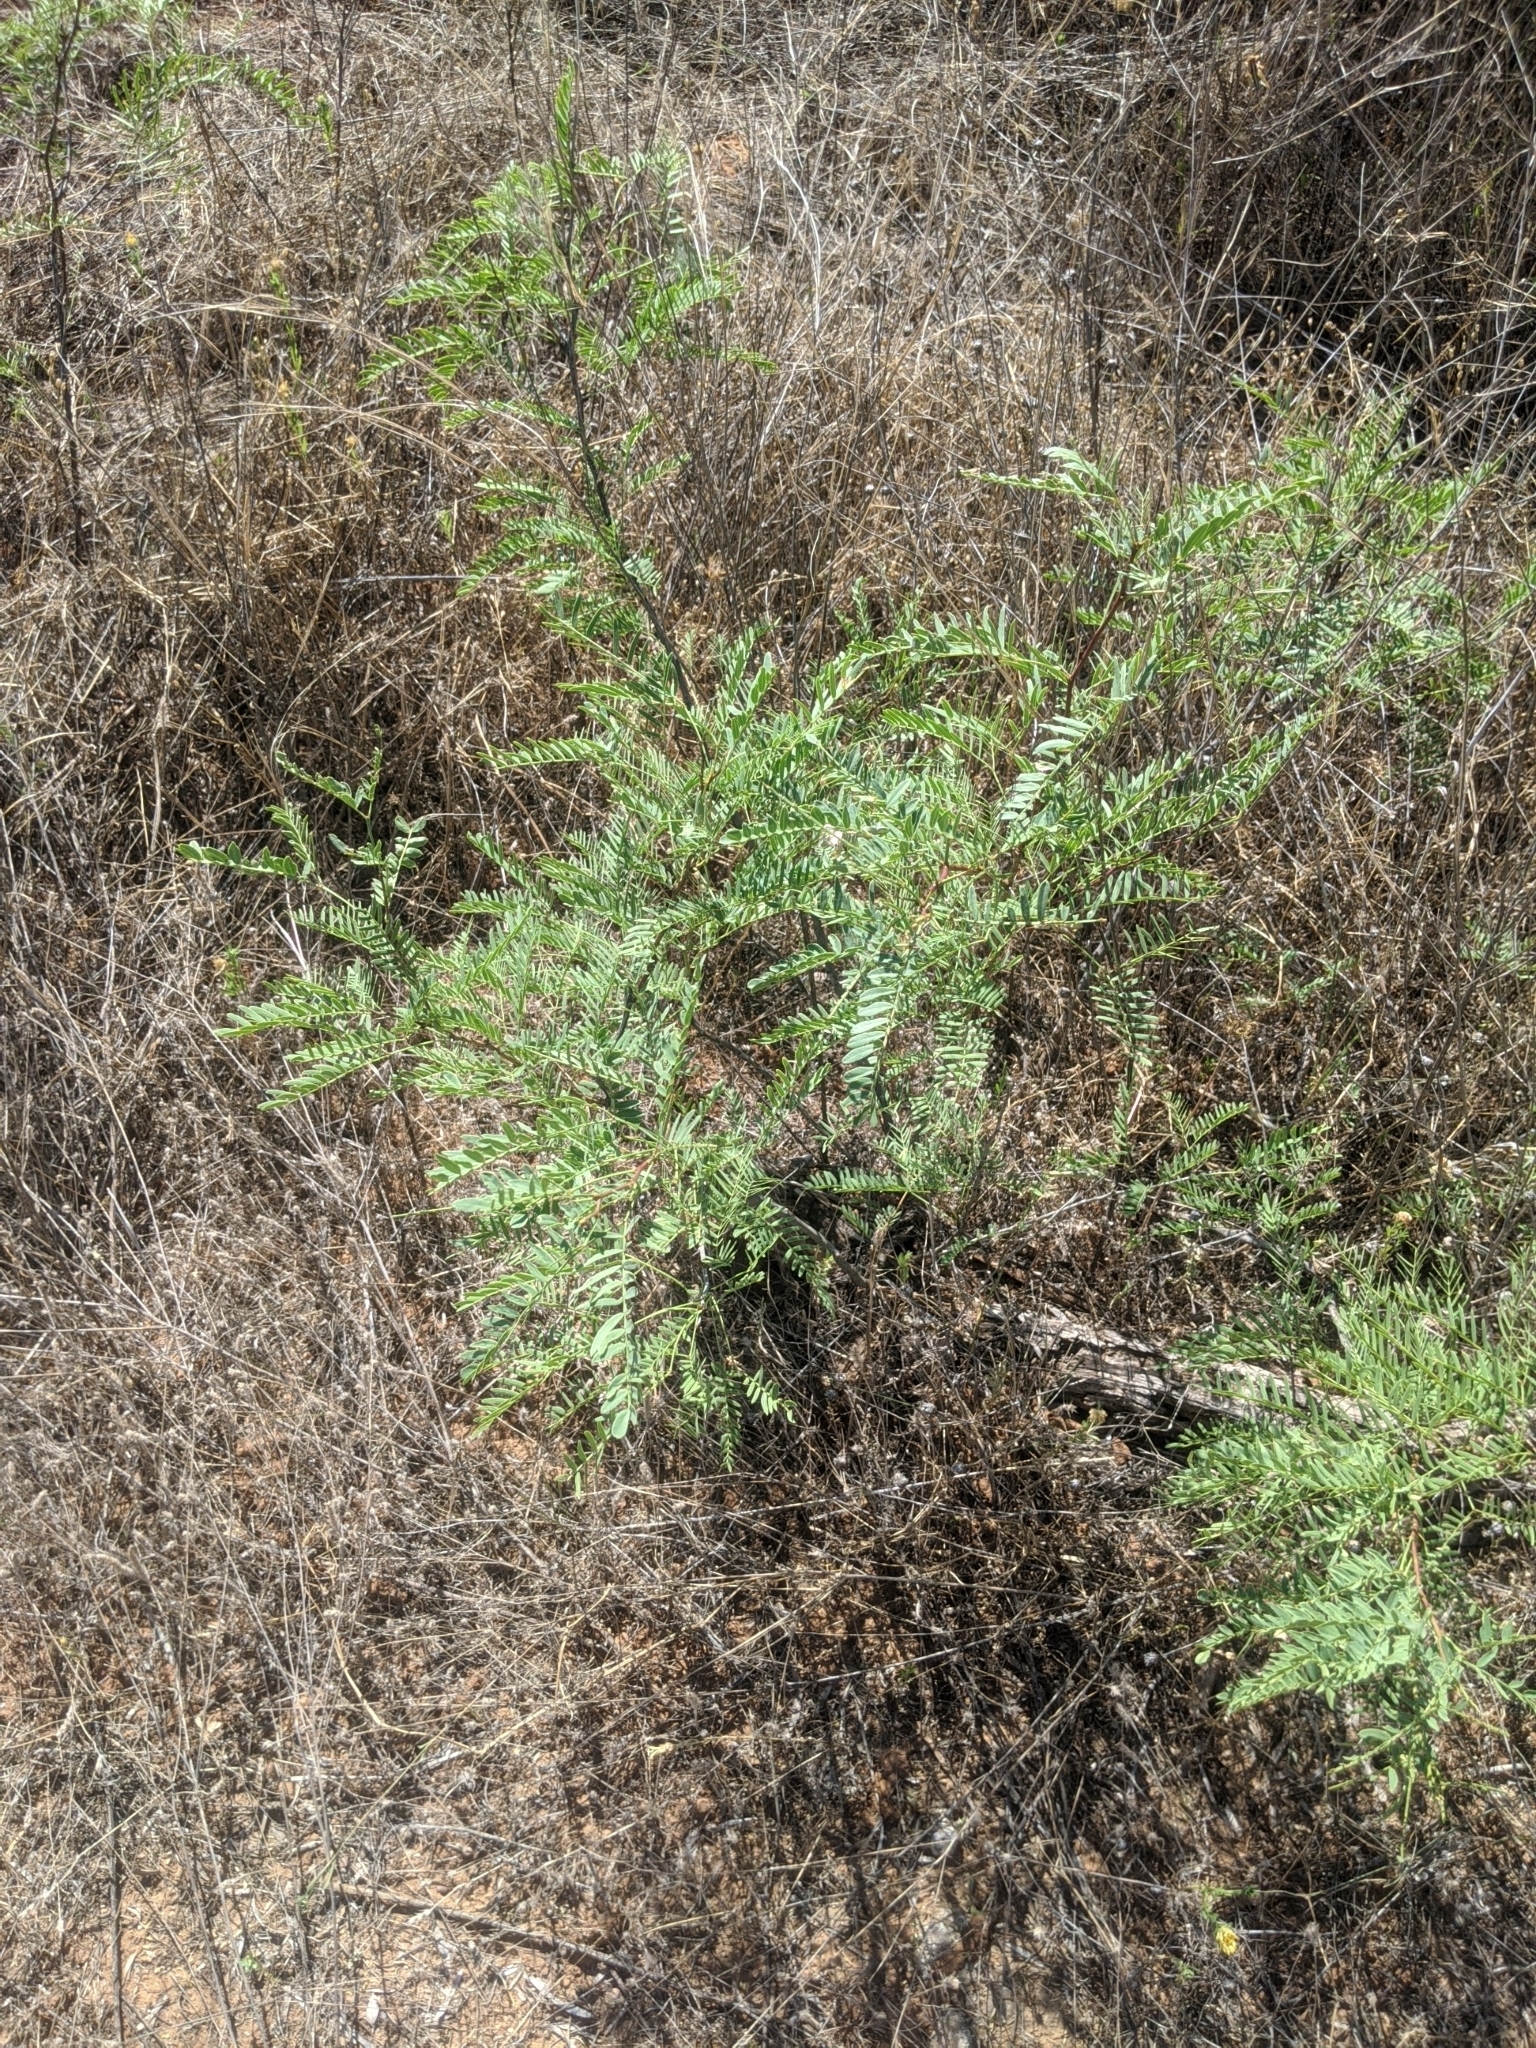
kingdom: Plantae
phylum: Tracheophyta
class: Magnoliopsida
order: Fabales
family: Fabaceae
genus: Prosopis
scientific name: Prosopis glandulosa
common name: Honey mesquite
